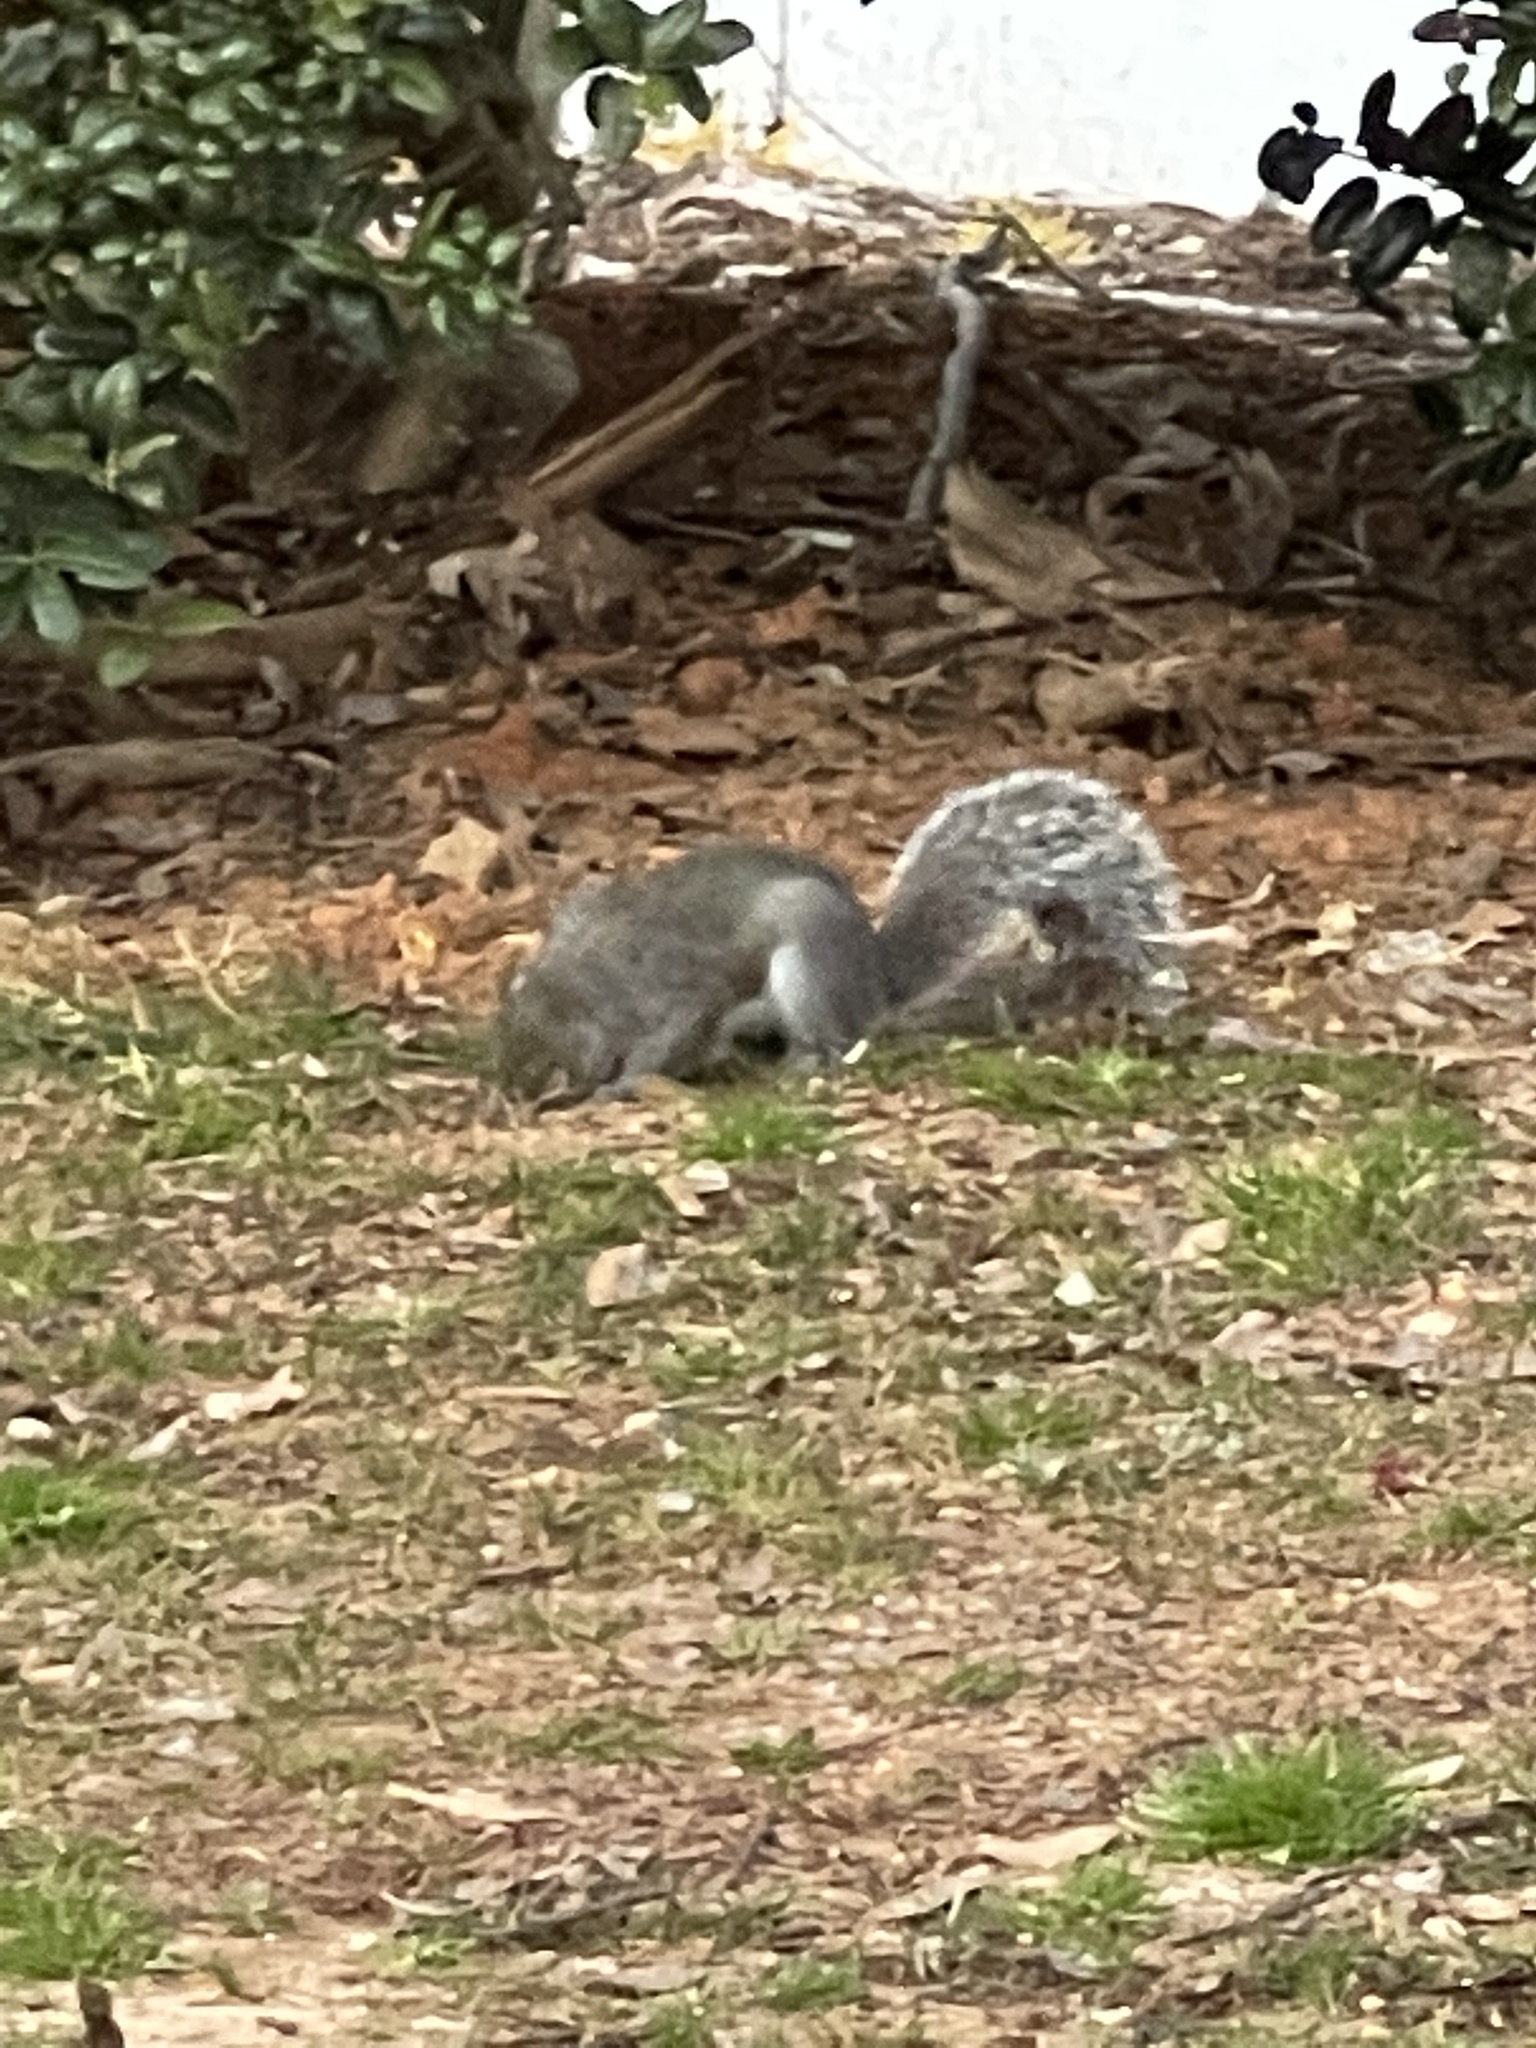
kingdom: Animalia
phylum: Chordata
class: Mammalia
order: Rodentia
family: Sciuridae
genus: Sciurus
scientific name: Sciurus carolinensis
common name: Eastern gray squirrel
